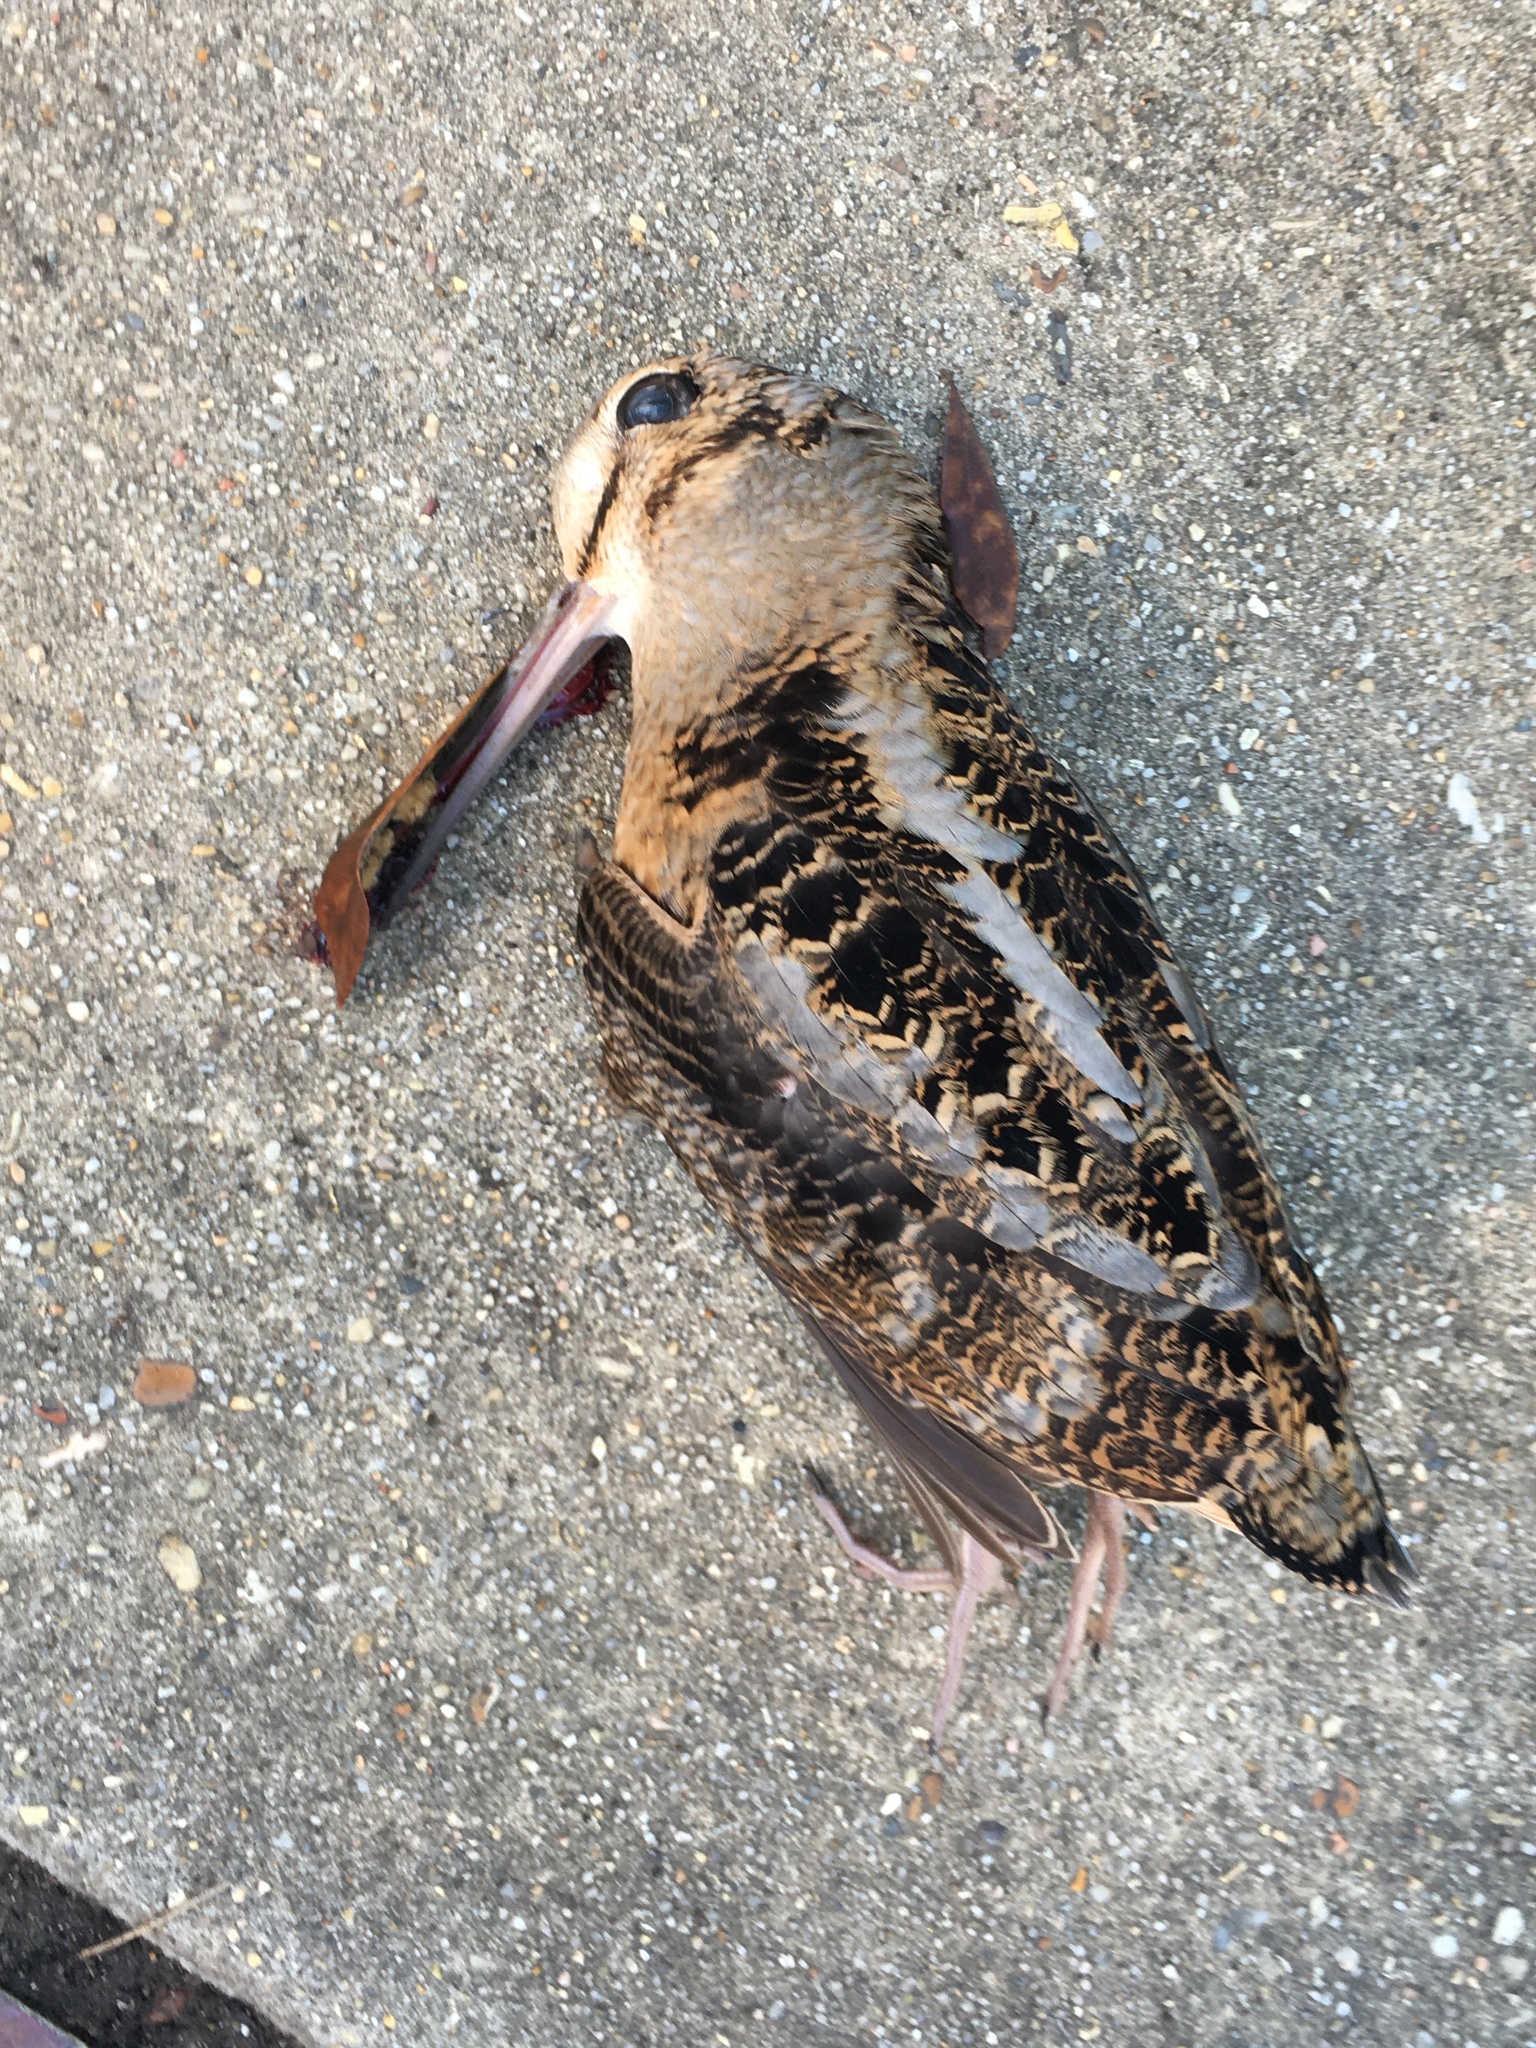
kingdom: Animalia
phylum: Chordata
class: Aves
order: Charadriiformes
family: Scolopacidae
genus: Scolopax
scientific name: Scolopax minor
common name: American woodcock
